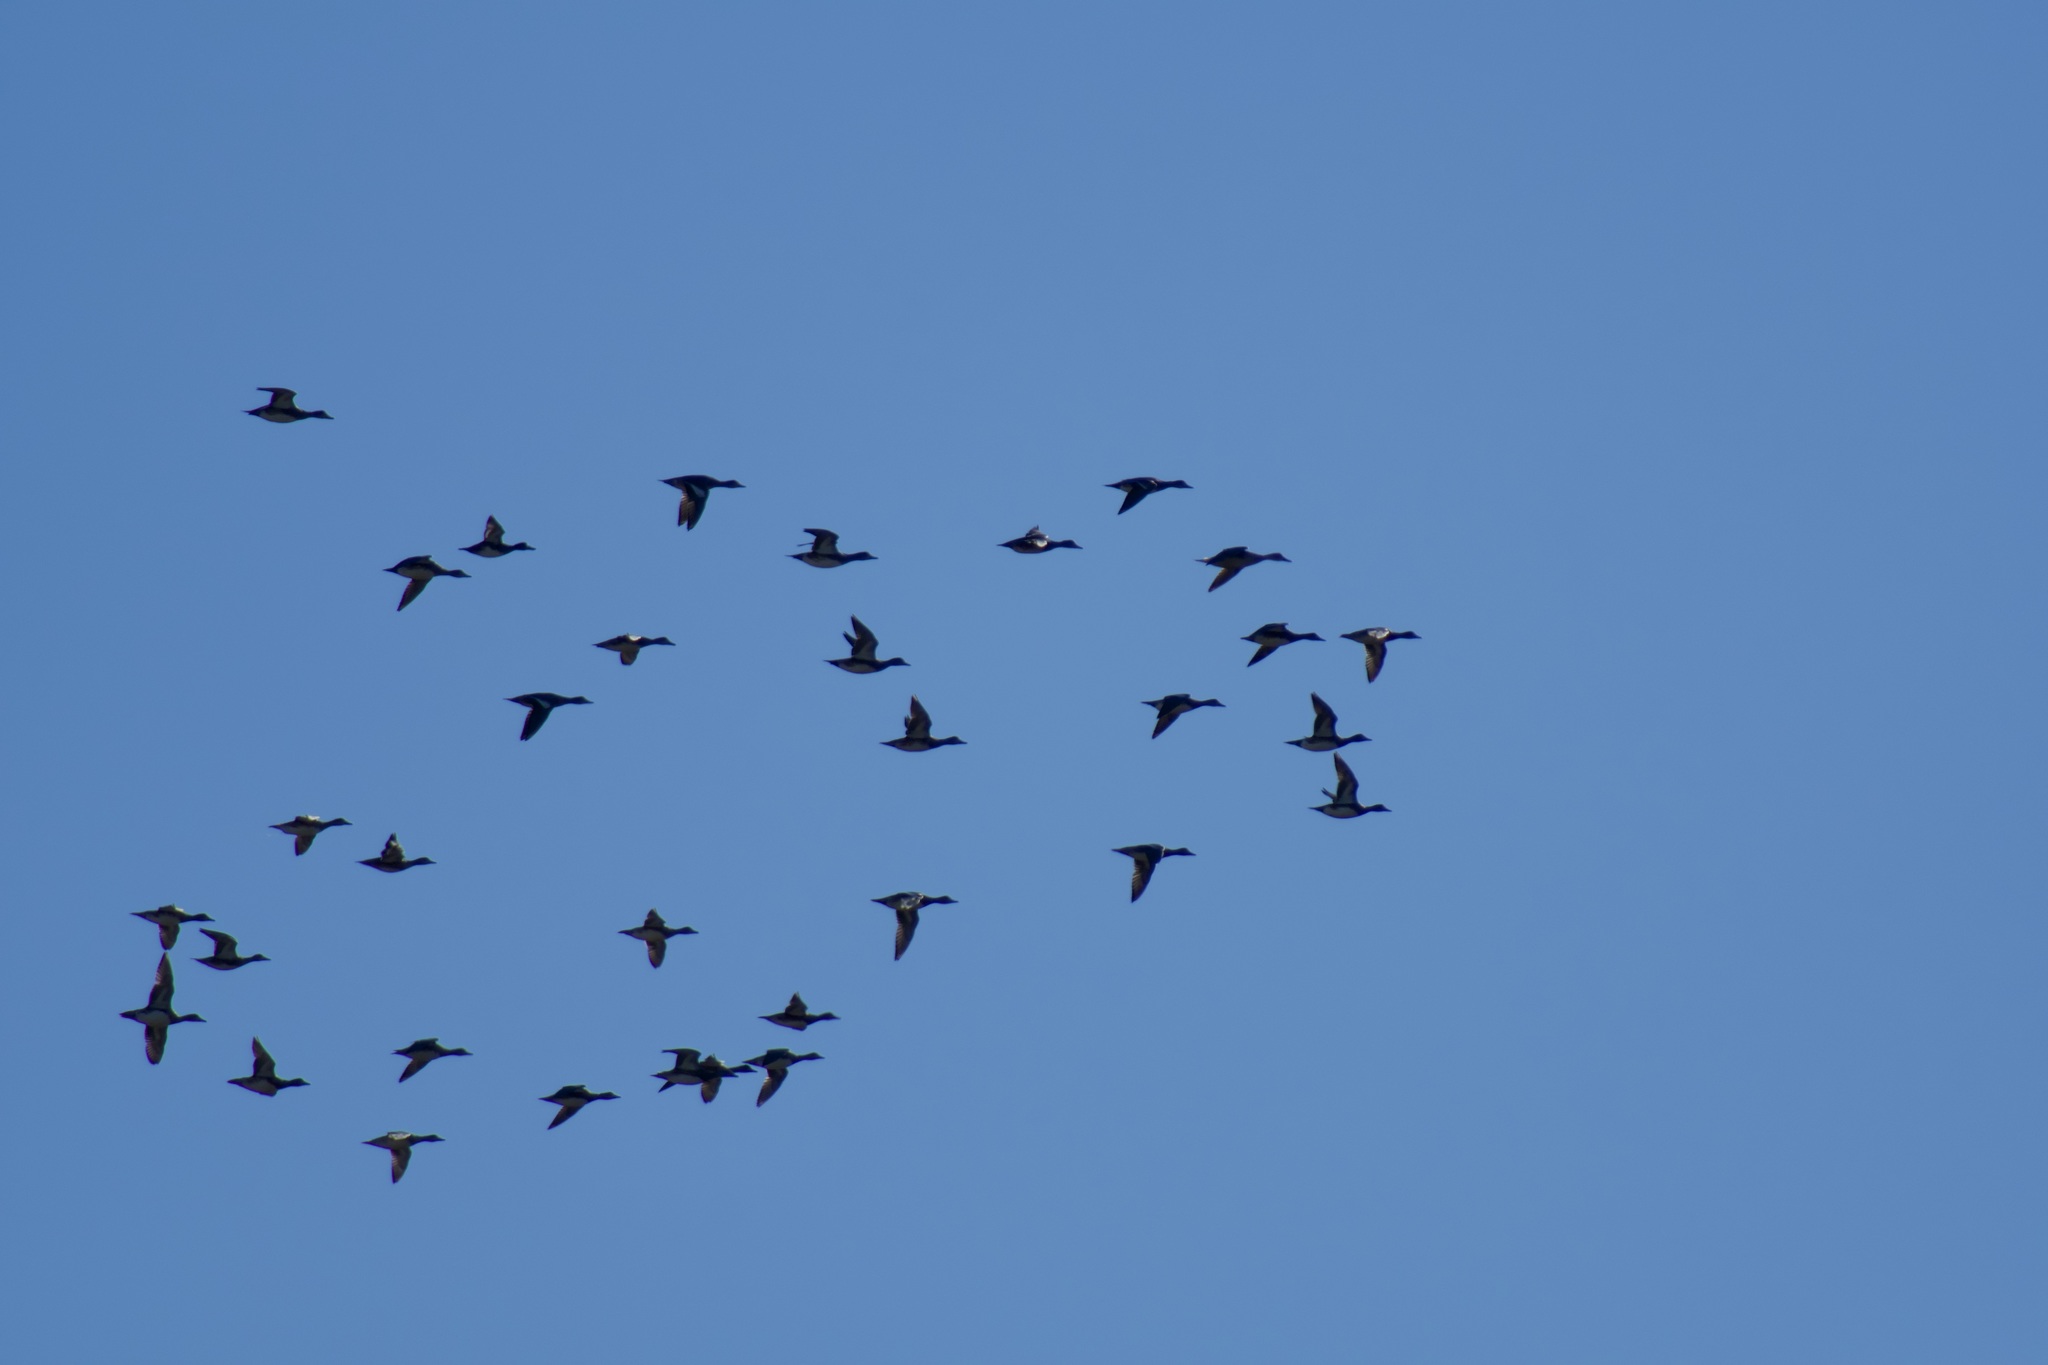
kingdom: Animalia
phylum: Chordata
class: Aves
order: Anseriformes
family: Anatidae
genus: Mareca
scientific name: Mareca americana
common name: American wigeon
